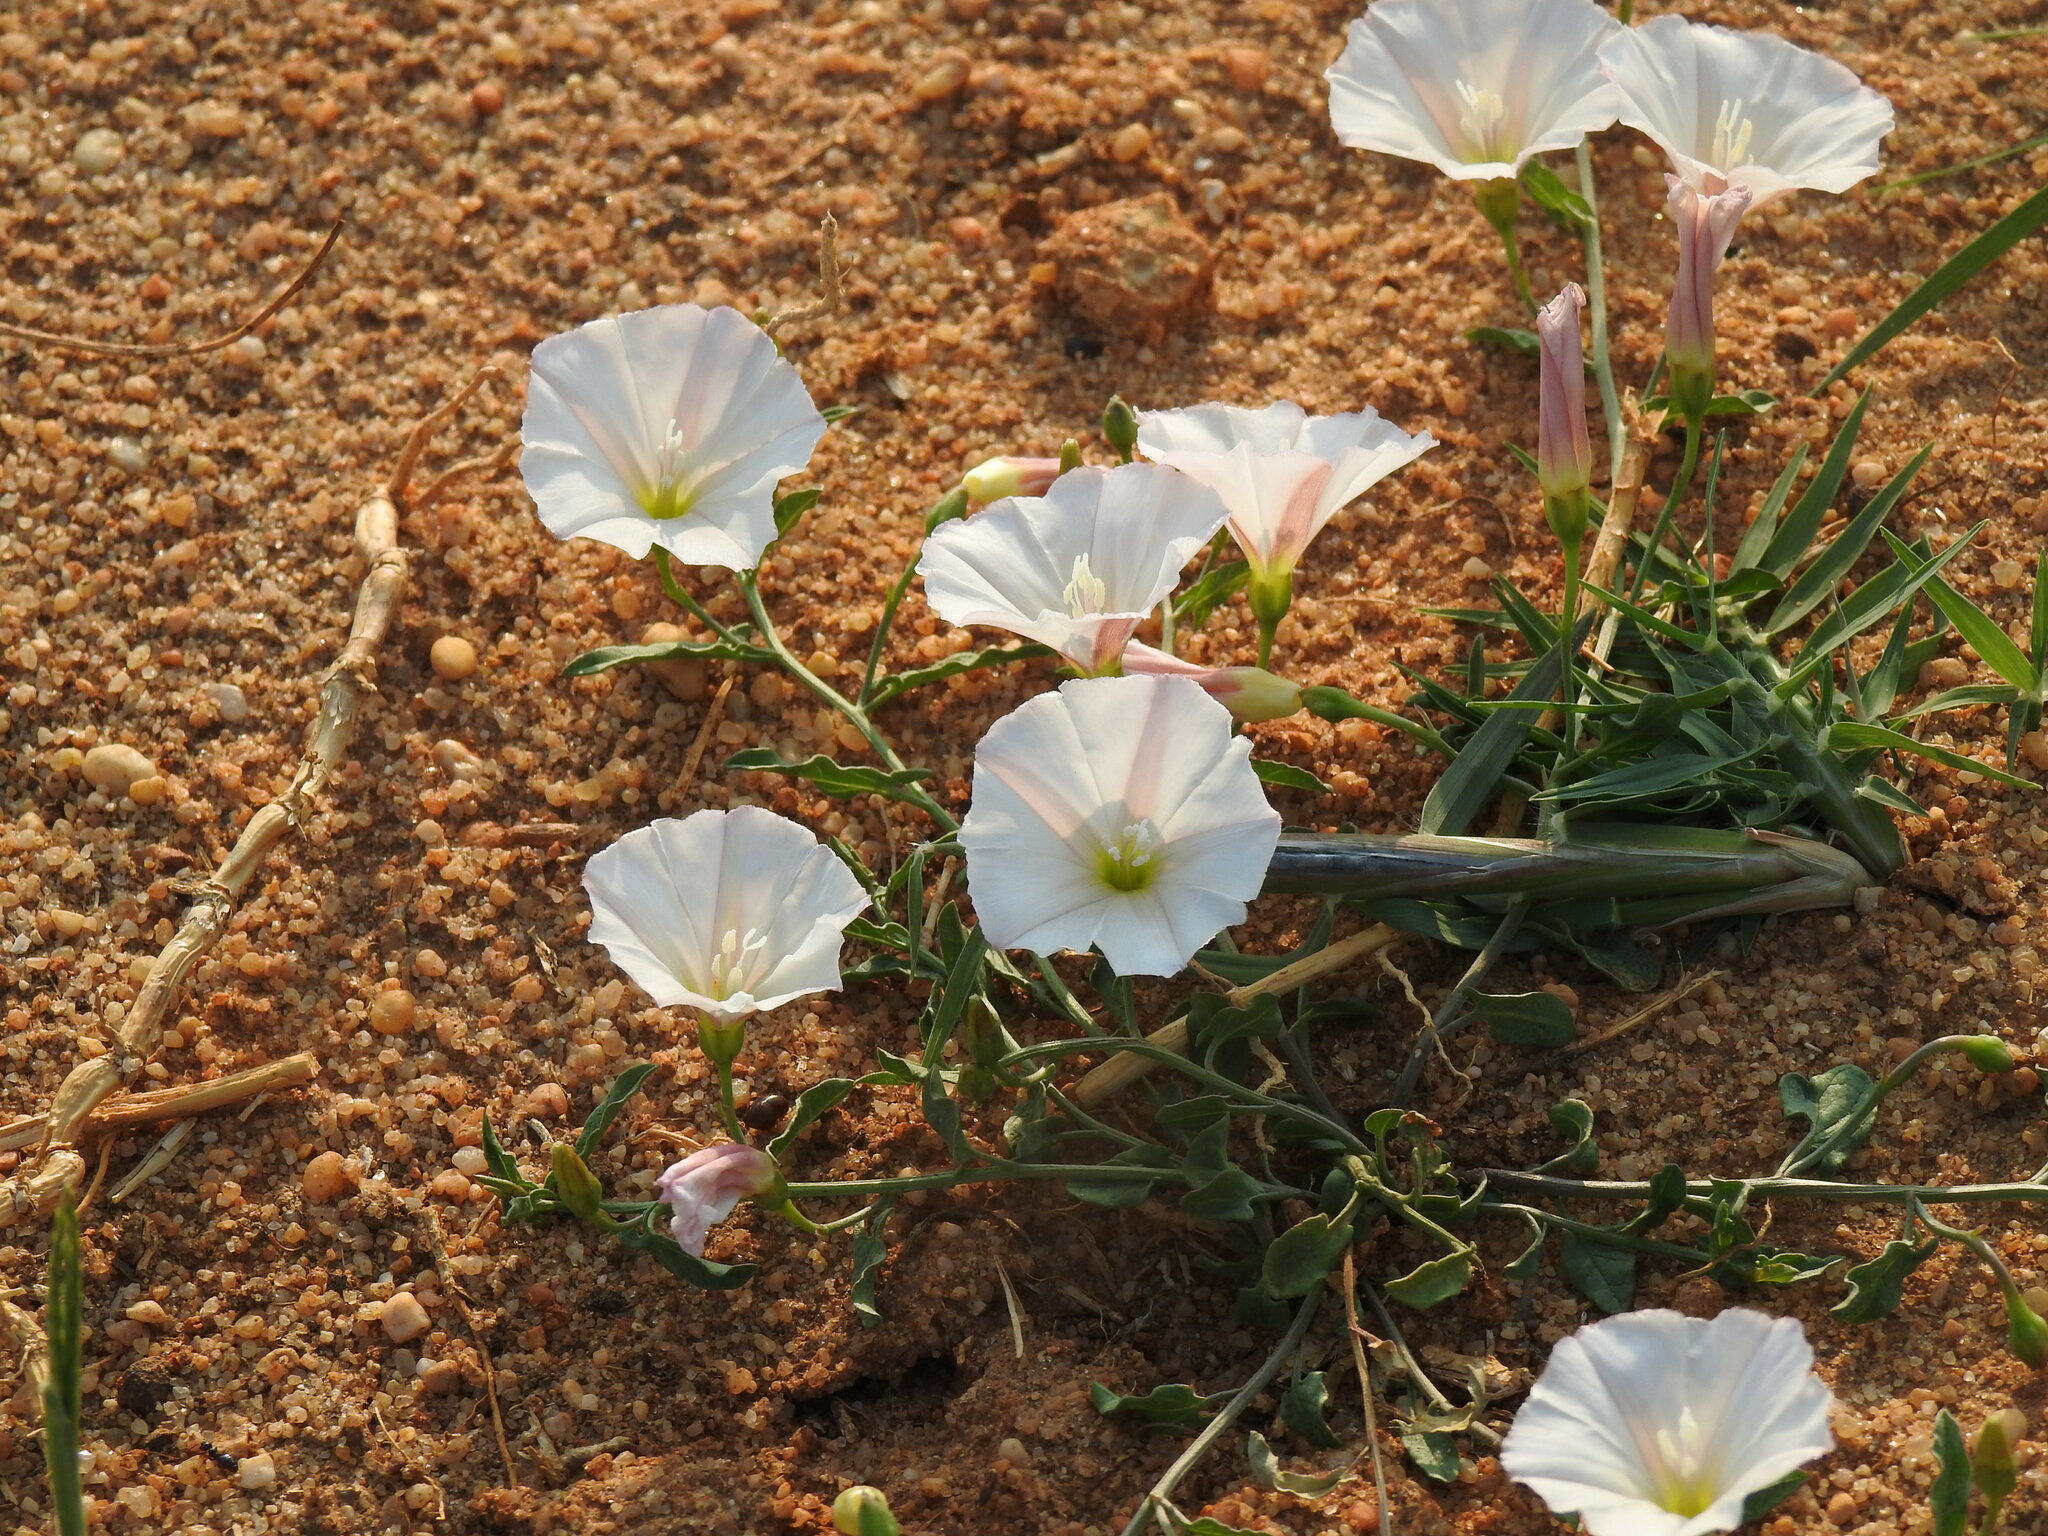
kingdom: Plantae
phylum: Tracheophyta
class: Magnoliopsida
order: Solanales
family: Convolvulaceae
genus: Convolvulus
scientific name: Convolvulus arvensis
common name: Field bindweed
